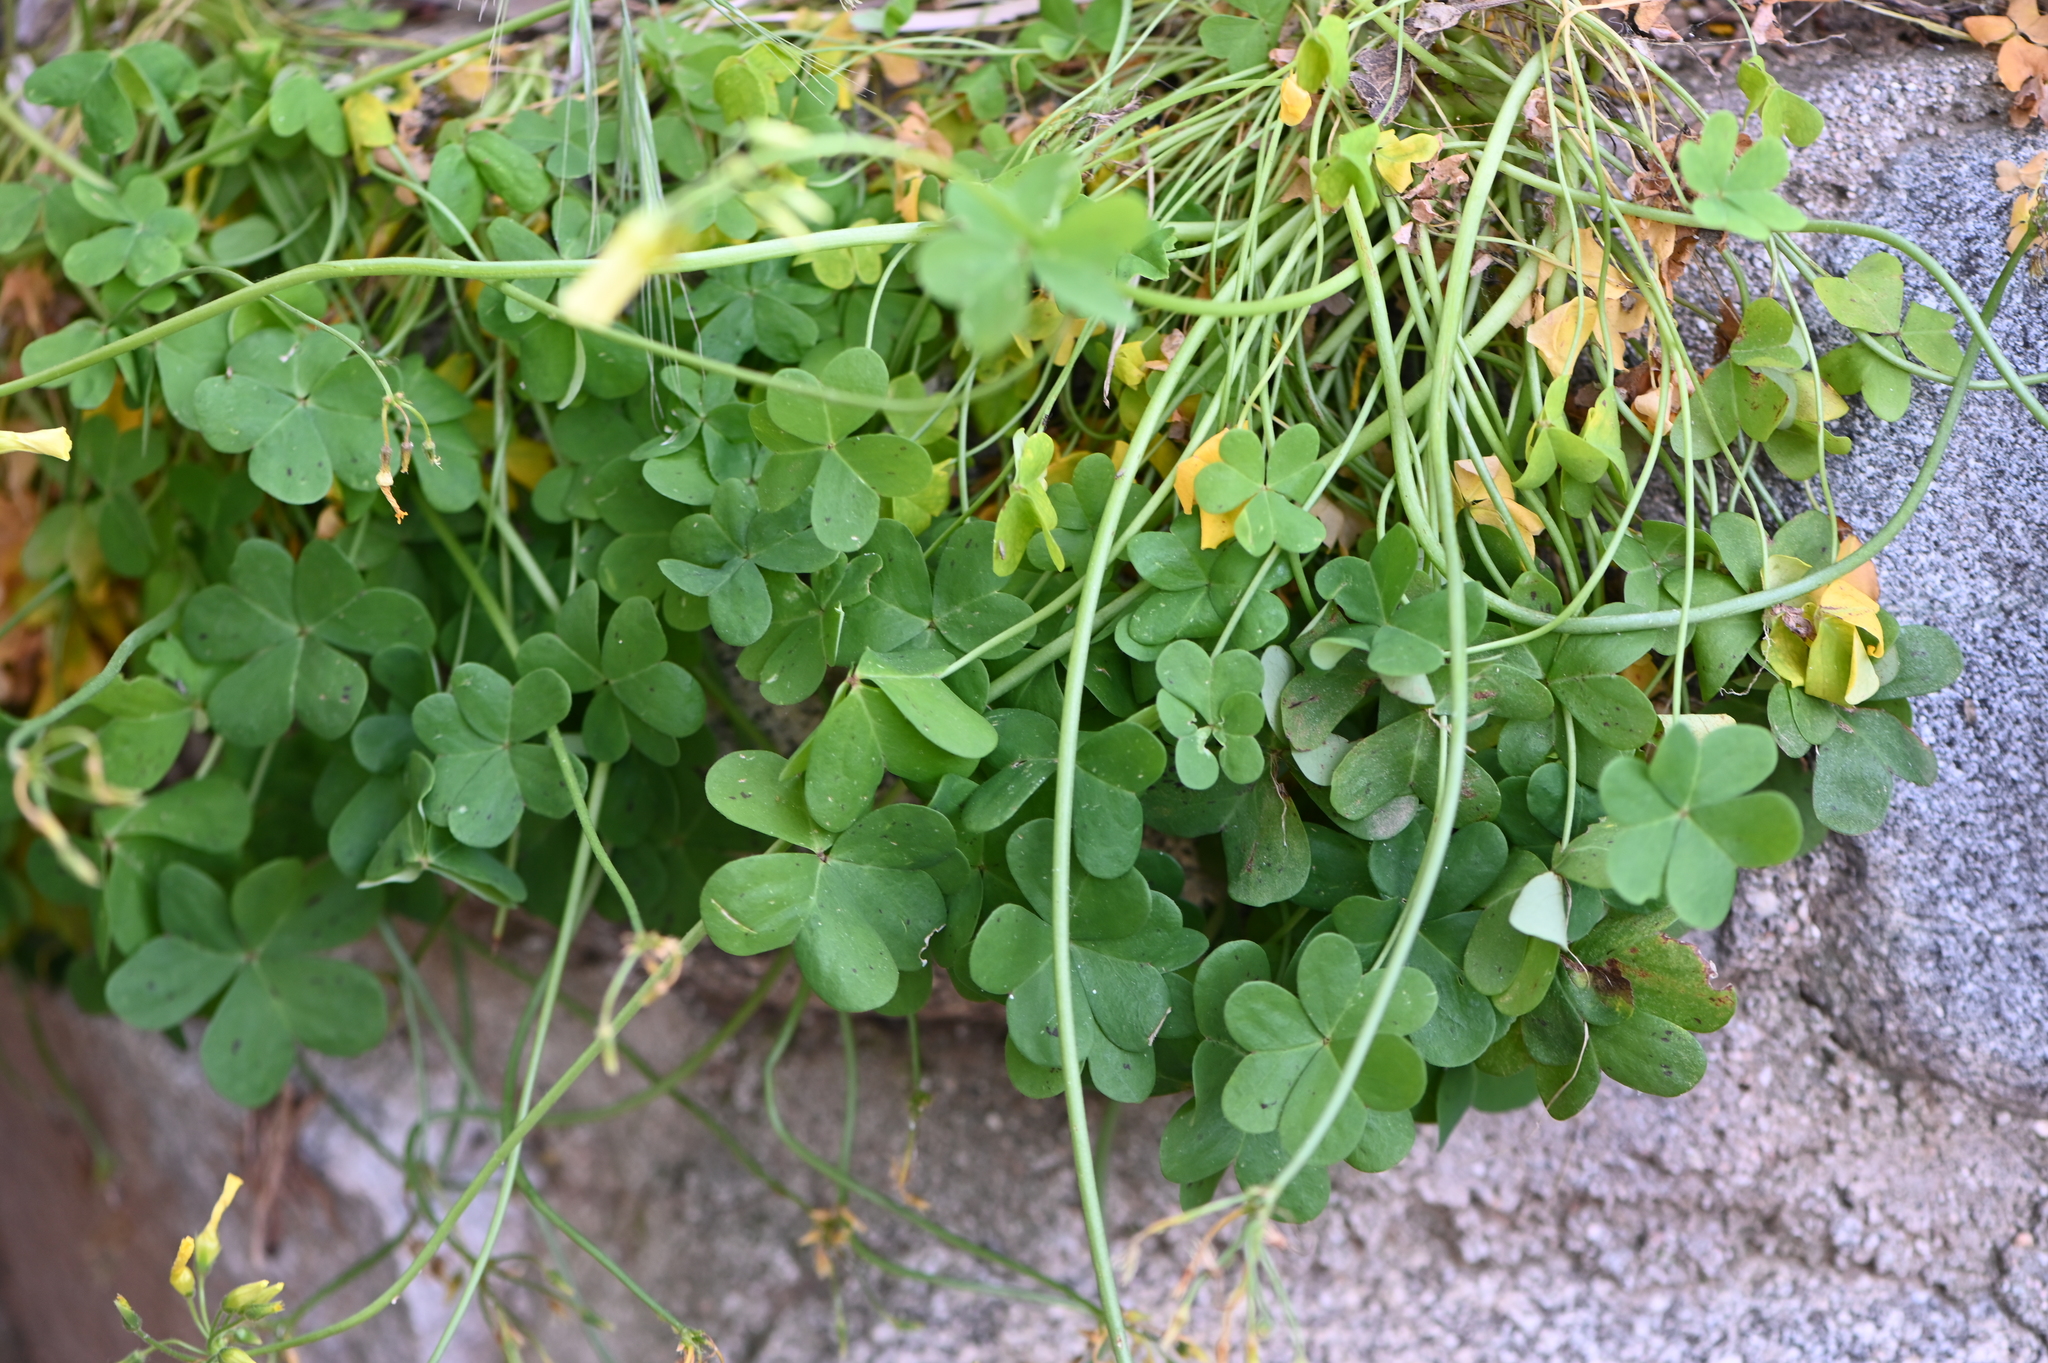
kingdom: Plantae
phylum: Tracheophyta
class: Magnoliopsida
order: Oxalidales
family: Oxalidaceae
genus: Oxalis
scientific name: Oxalis pes-caprae
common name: Bermuda-buttercup
